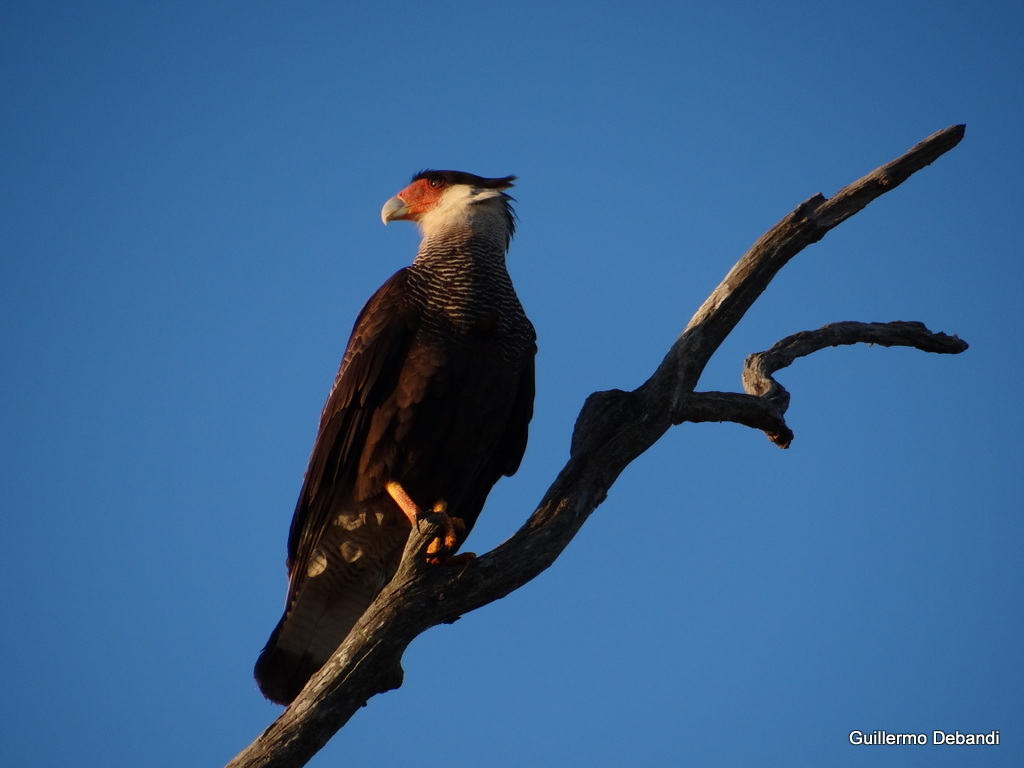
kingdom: Animalia
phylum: Chordata
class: Aves
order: Falconiformes
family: Falconidae
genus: Caracara
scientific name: Caracara plancus
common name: Southern caracara
